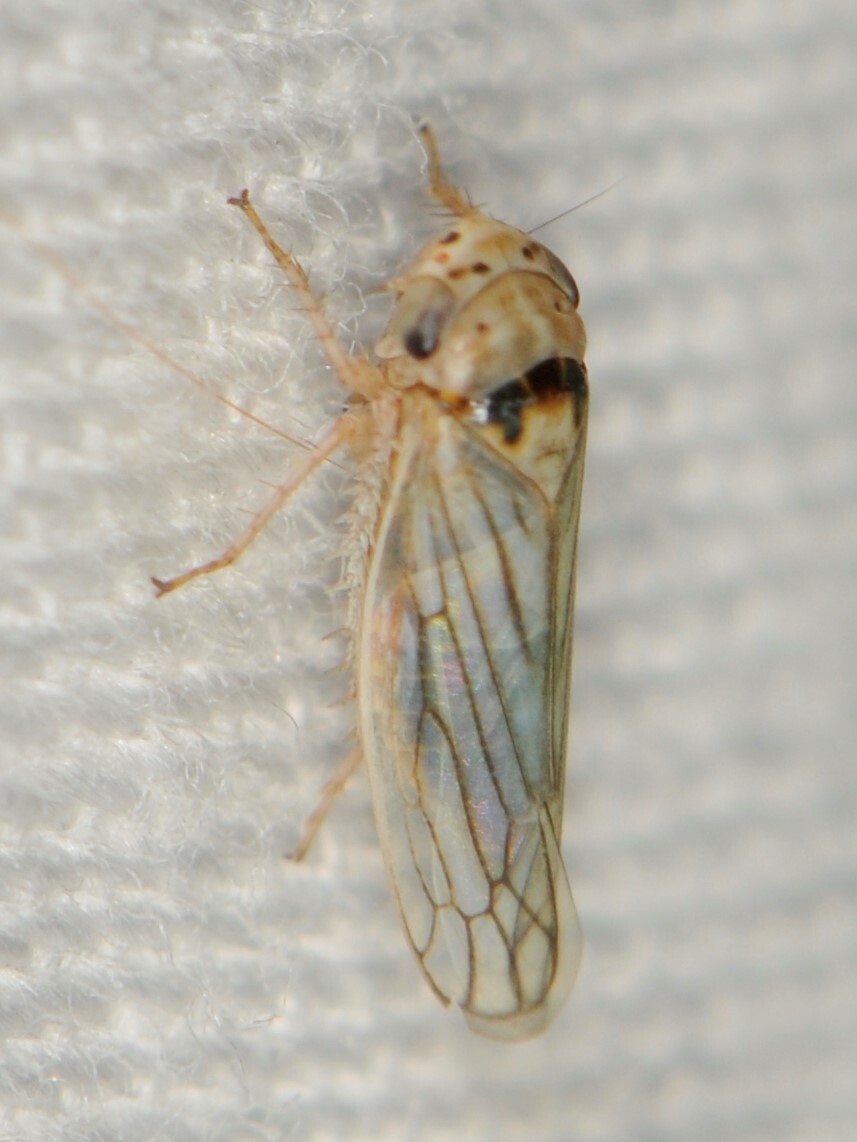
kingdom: Animalia
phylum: Arthropoda
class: Insecta
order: Hemiptera
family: Cicadellidae
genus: Exitianus
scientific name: Exitianus
